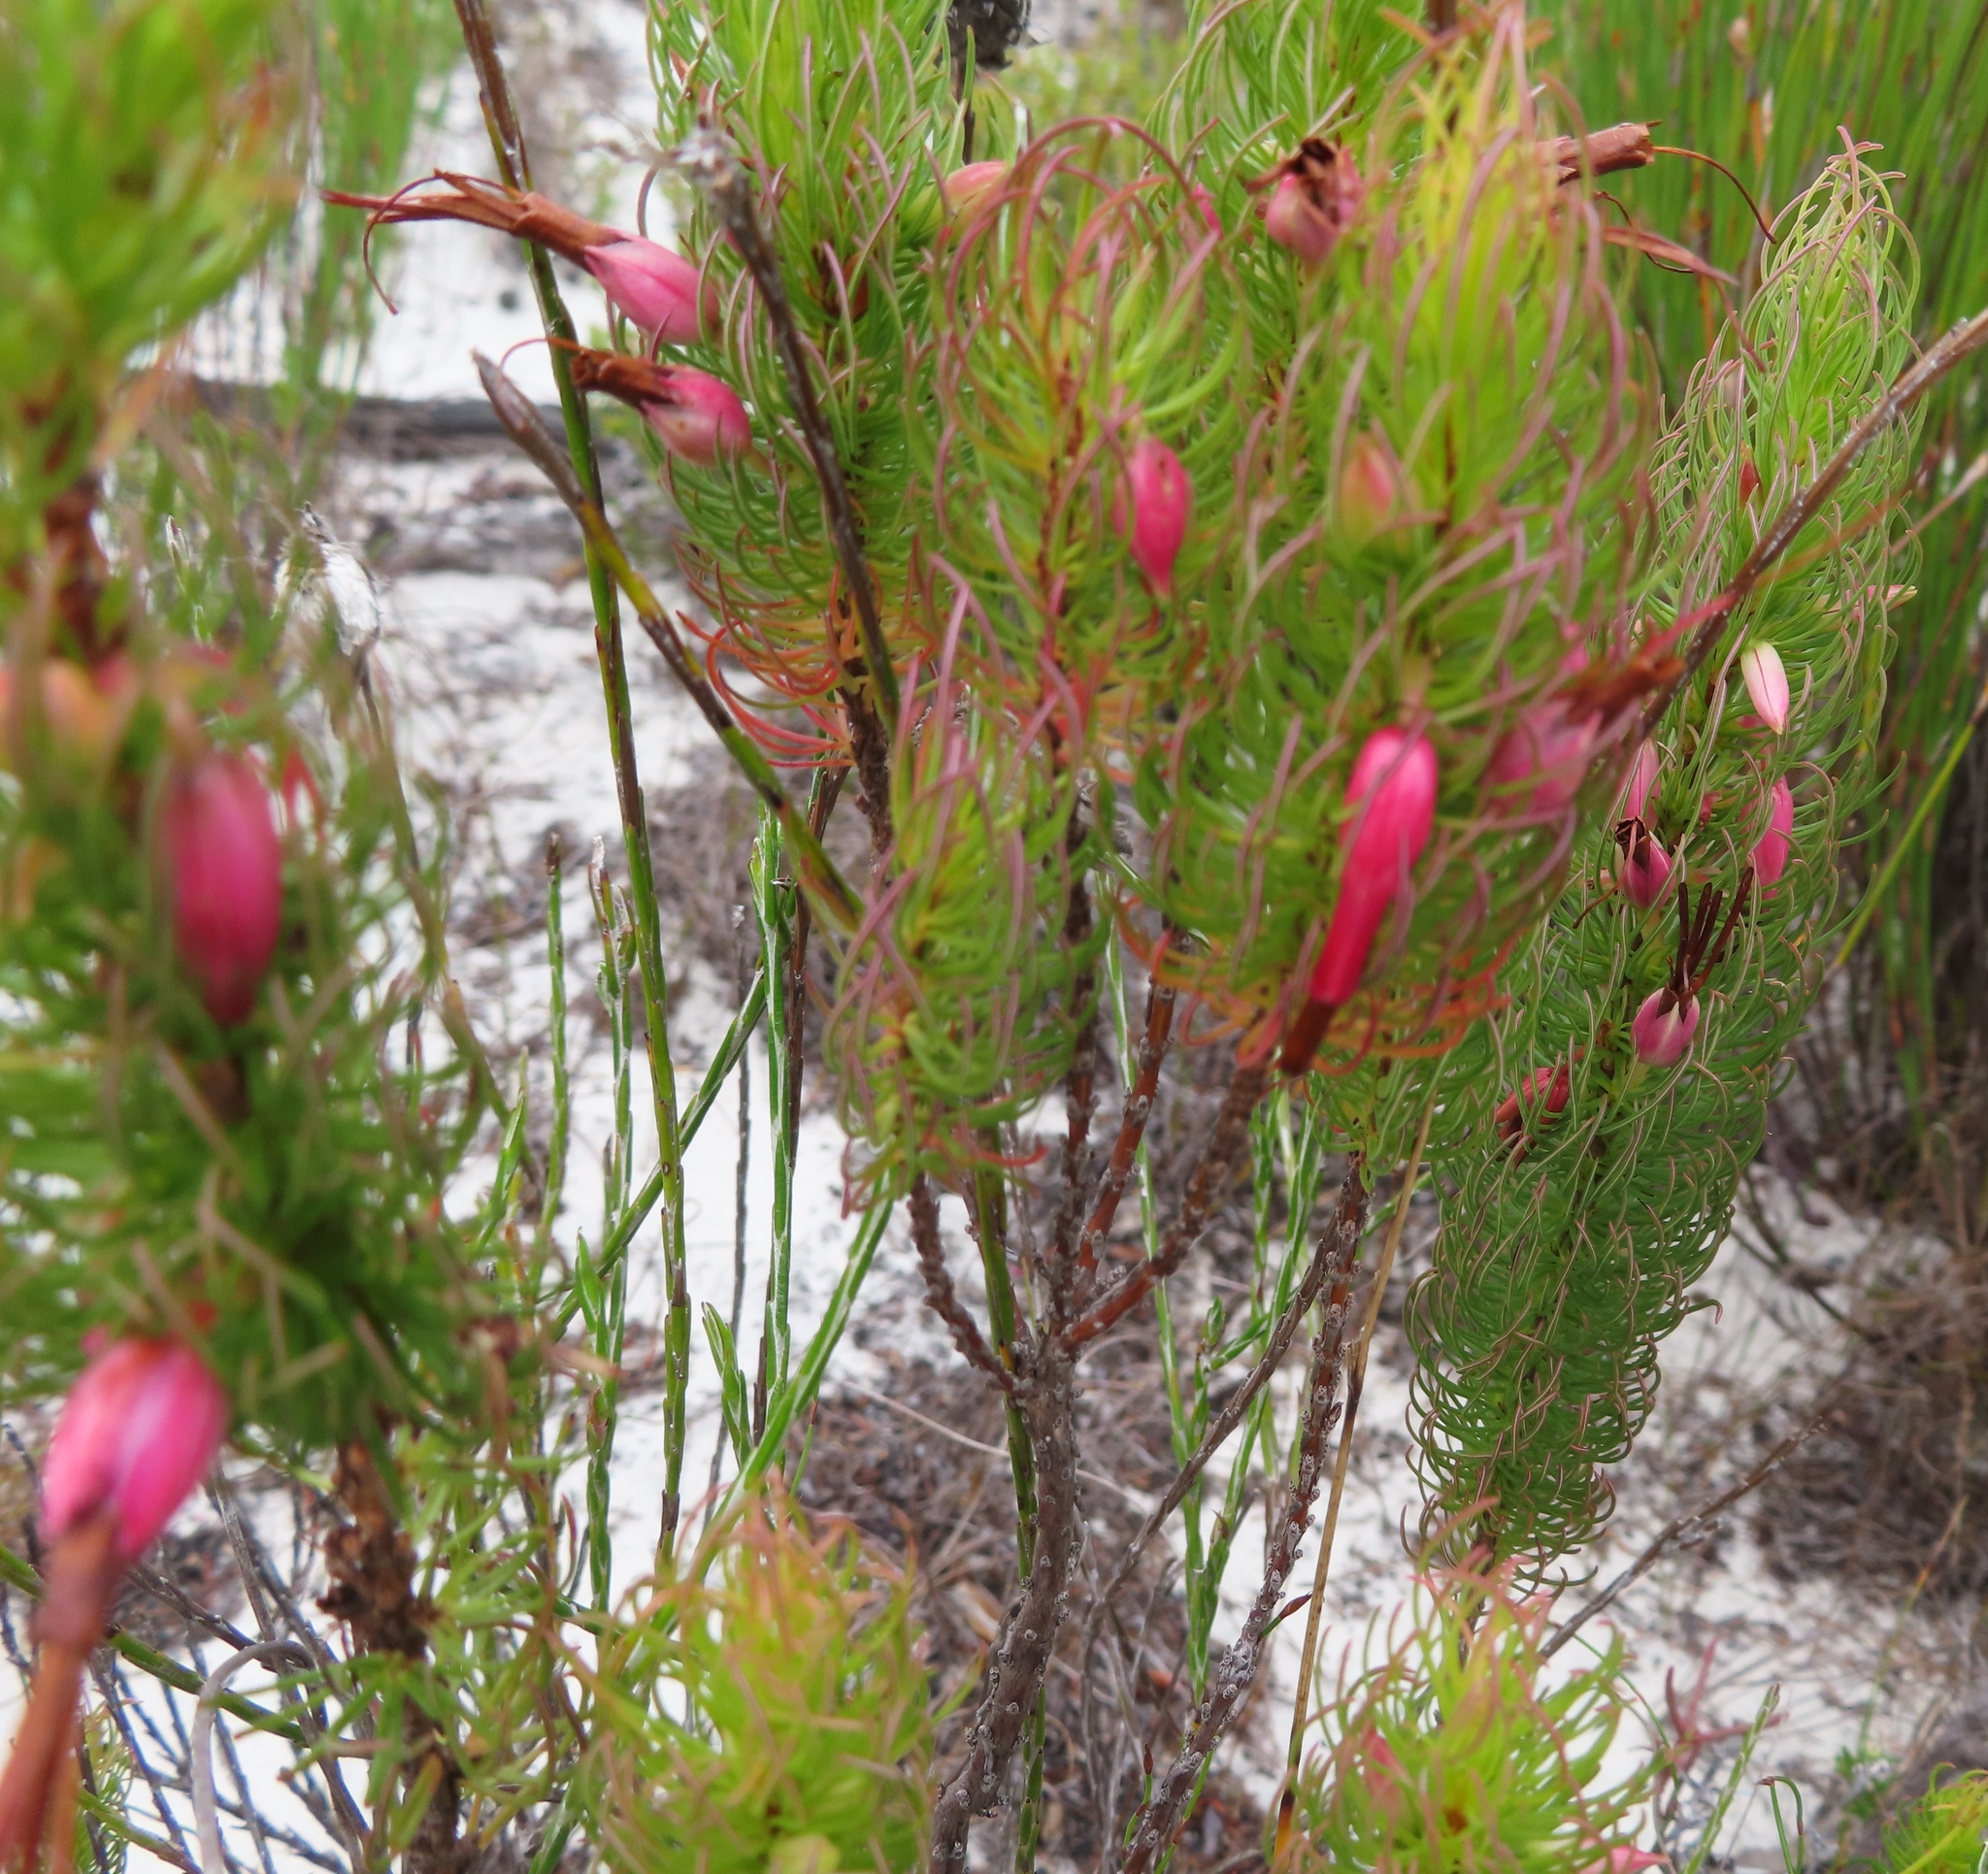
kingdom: Plantae
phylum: Tracheophyta
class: Magnoliopsida
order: Ericales
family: Ericaceae
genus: Erica
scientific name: Erica plukenetii
